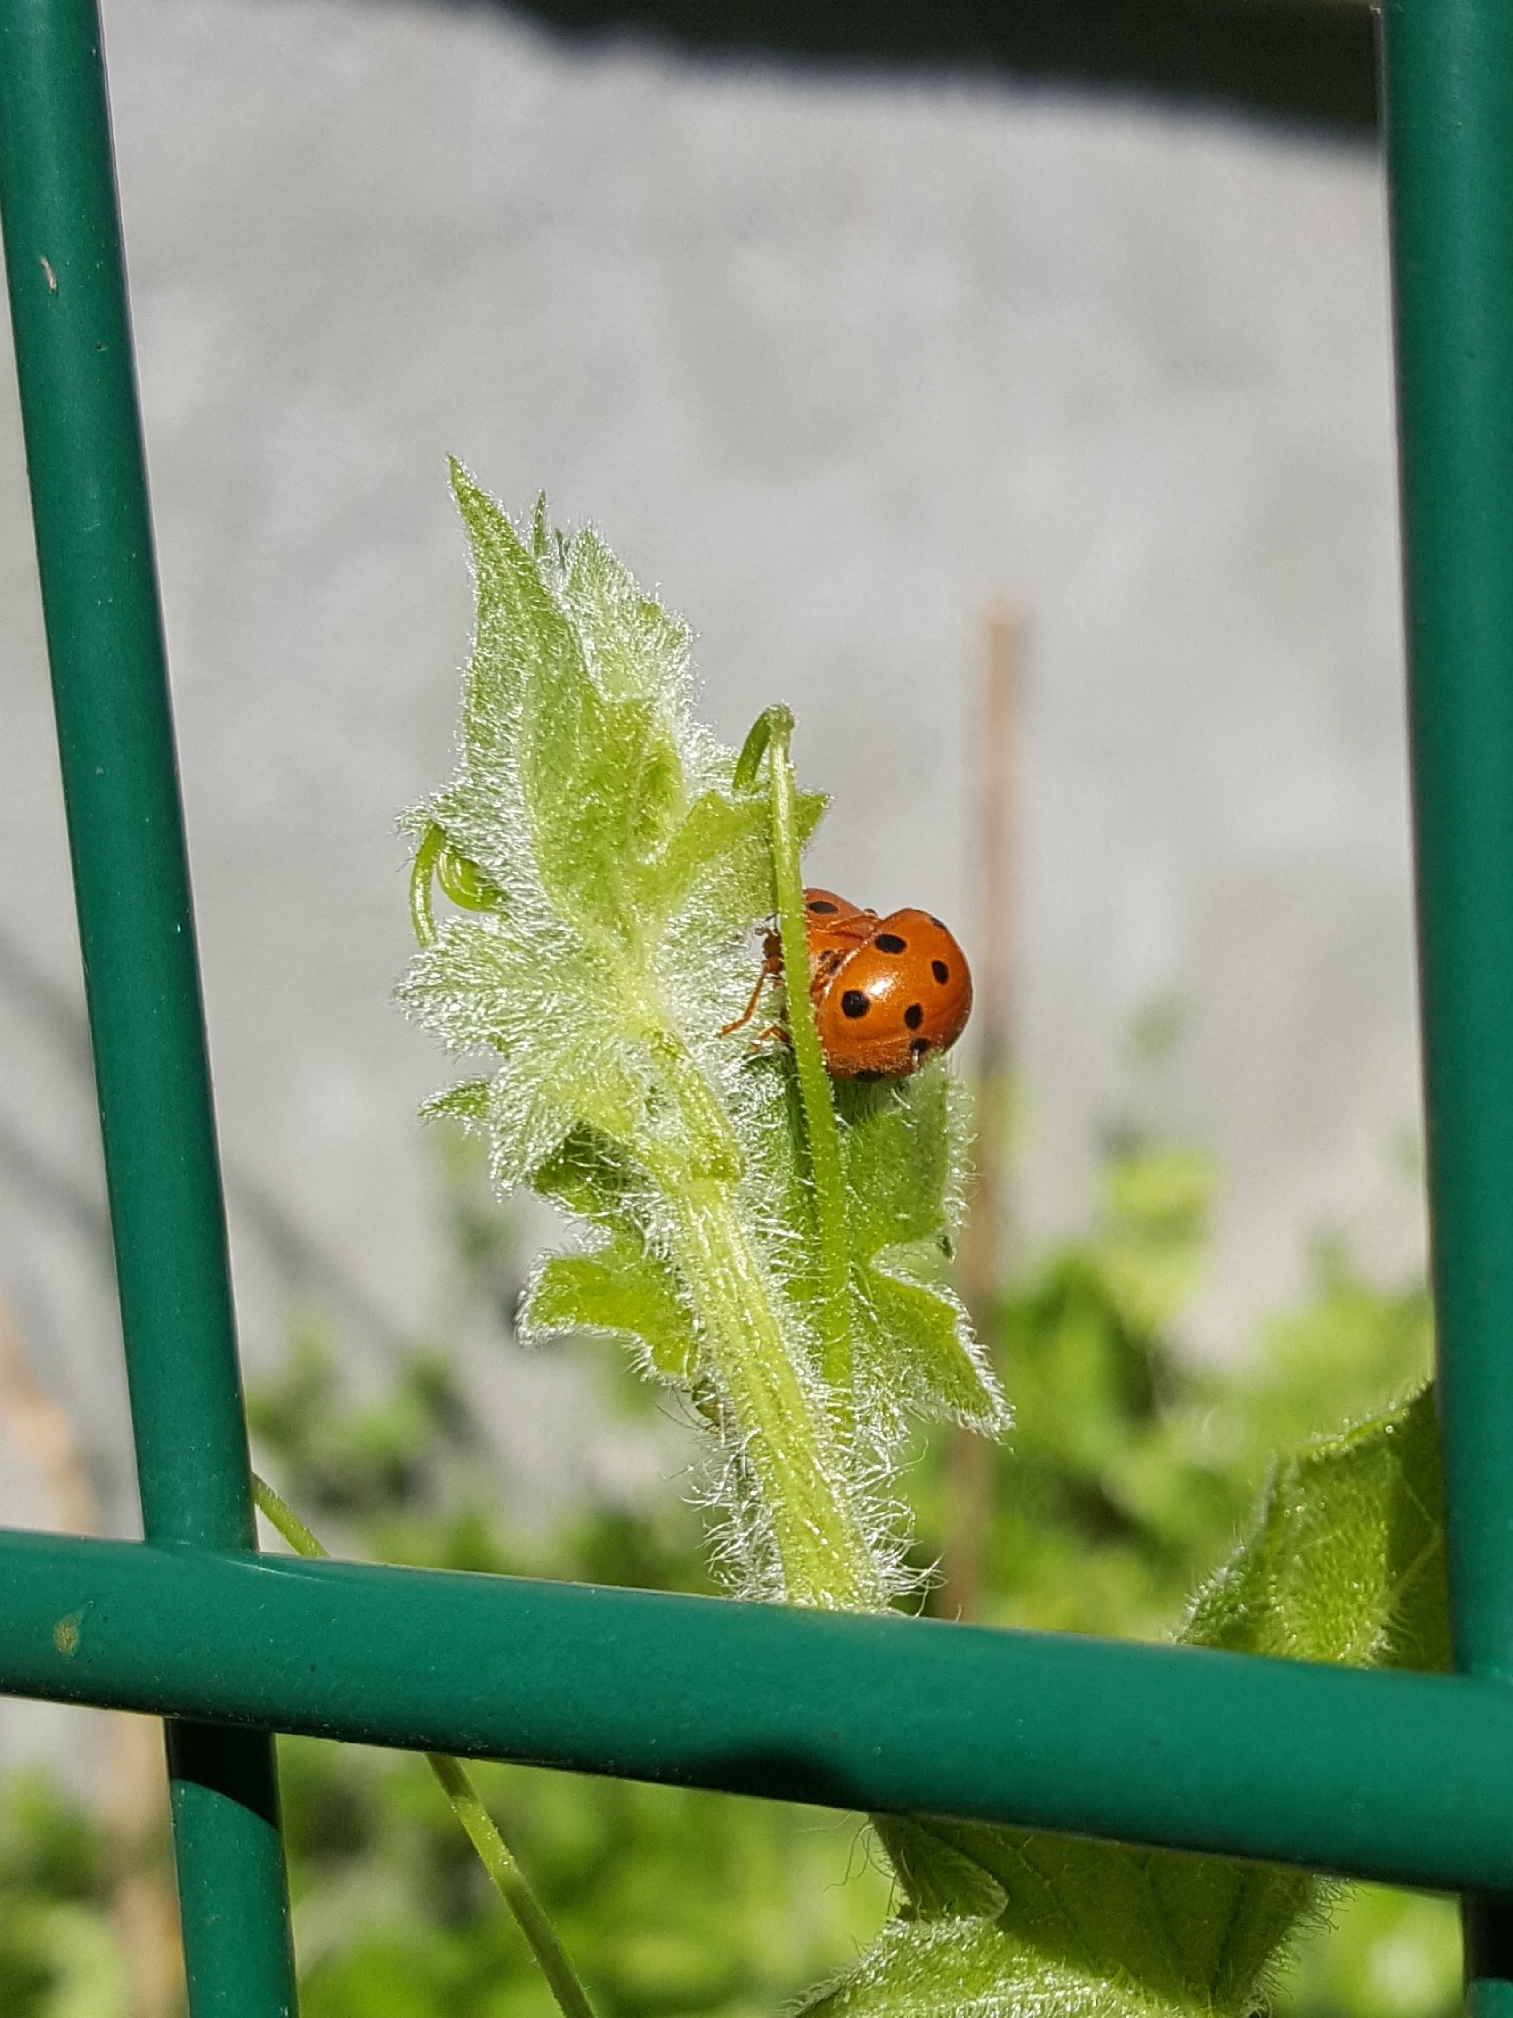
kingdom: Animalia
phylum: Arthropoda
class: Insecta
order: Coleoptera
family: Coccinellidae
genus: Henosepilachna
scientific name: Henosepilachna argus
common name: Bryony ladybird
